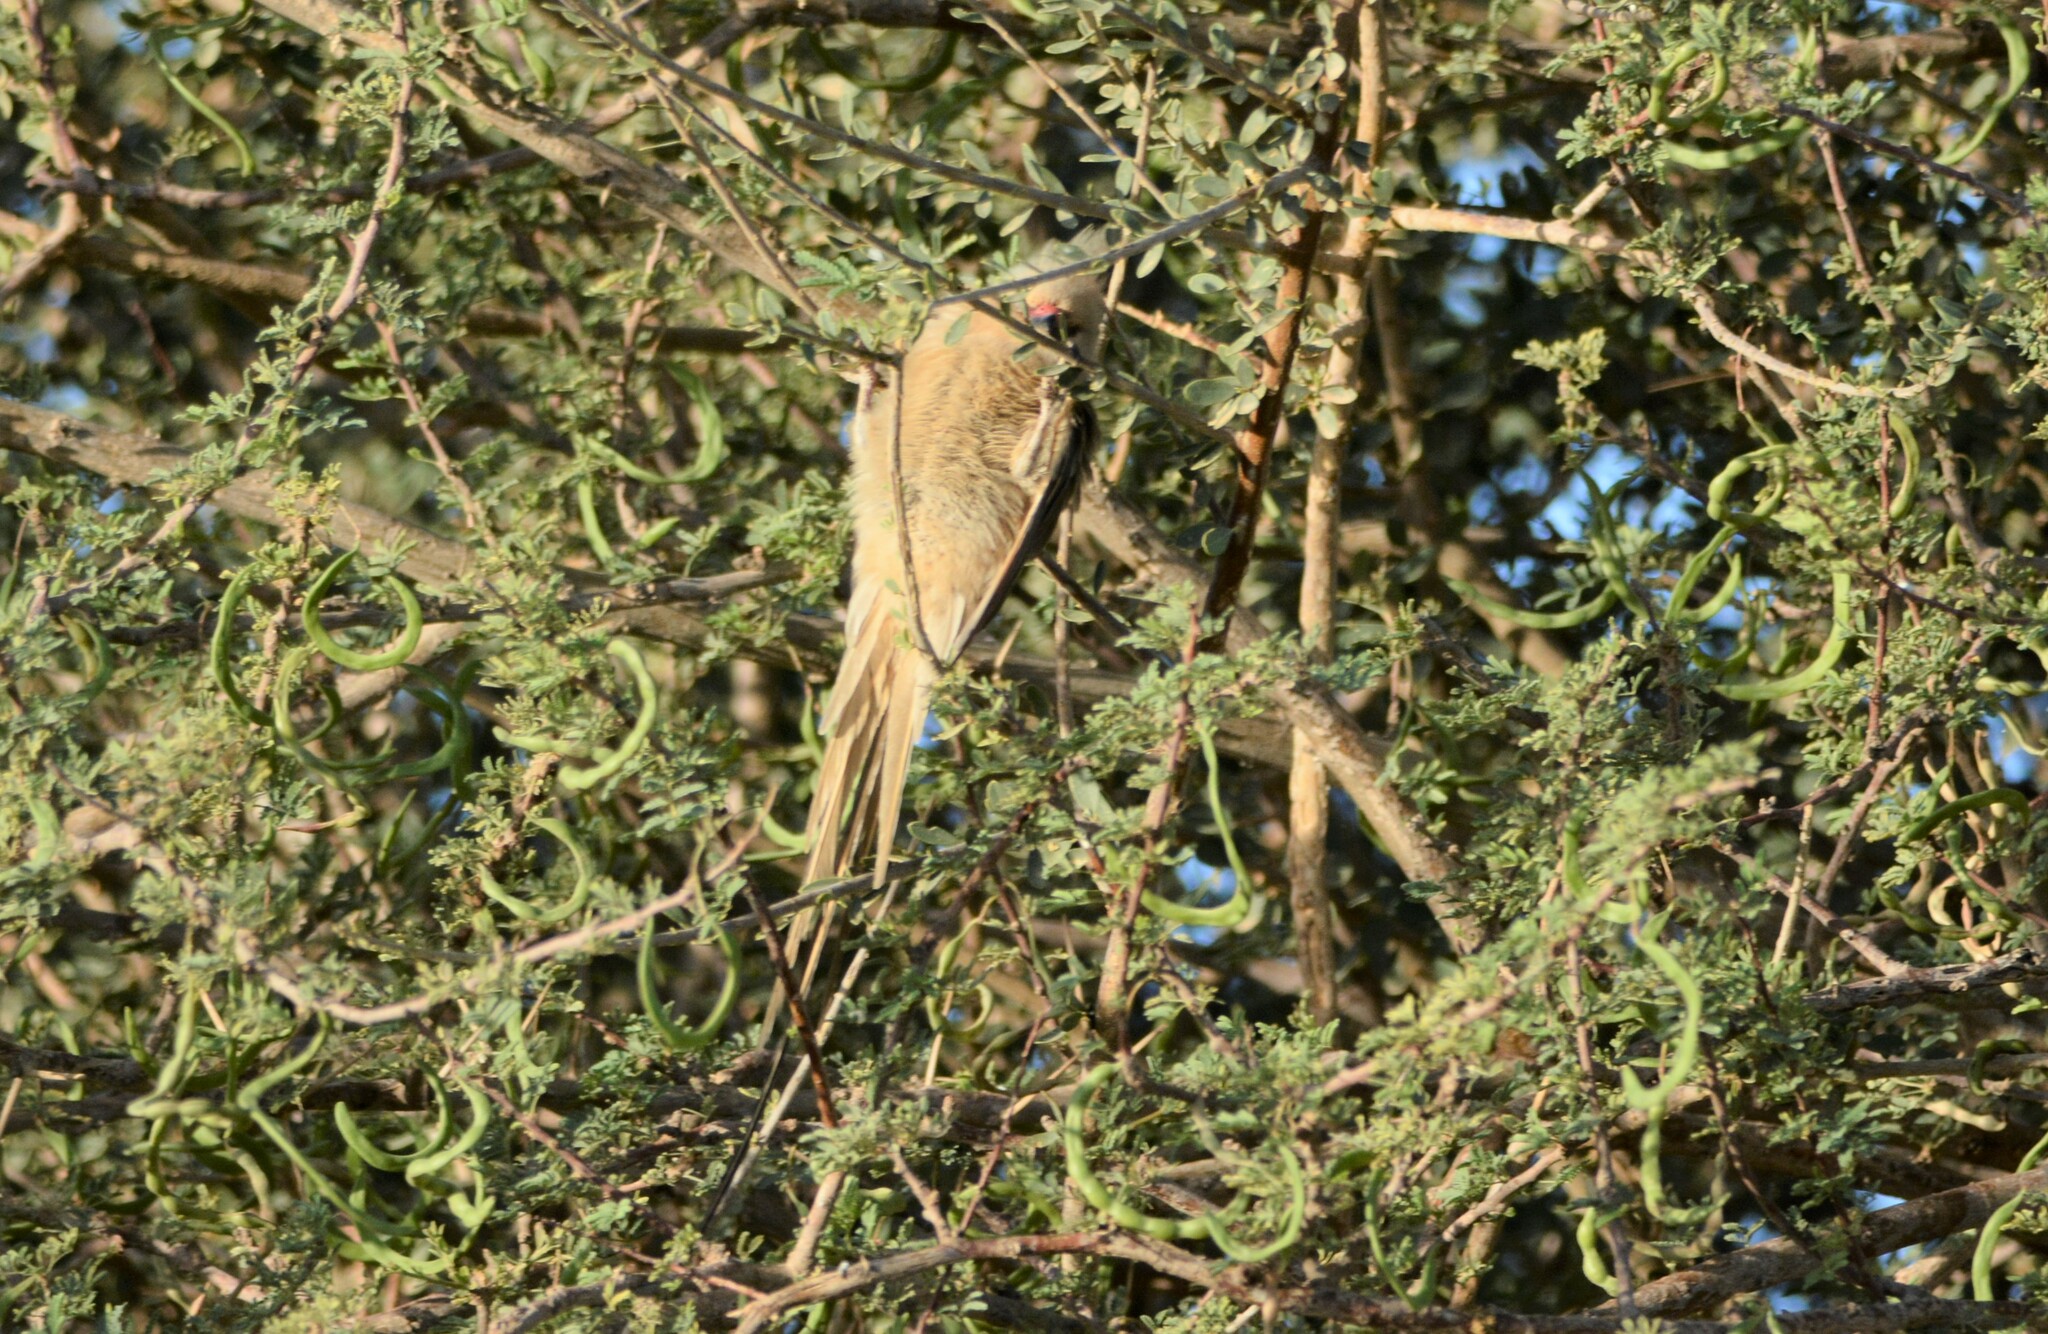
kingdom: Animalia
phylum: Chordata
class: Aves
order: Coliiformes
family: Coliidae
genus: Urocolius
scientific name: Urocolius macrourus
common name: Blue-naped mousebird
